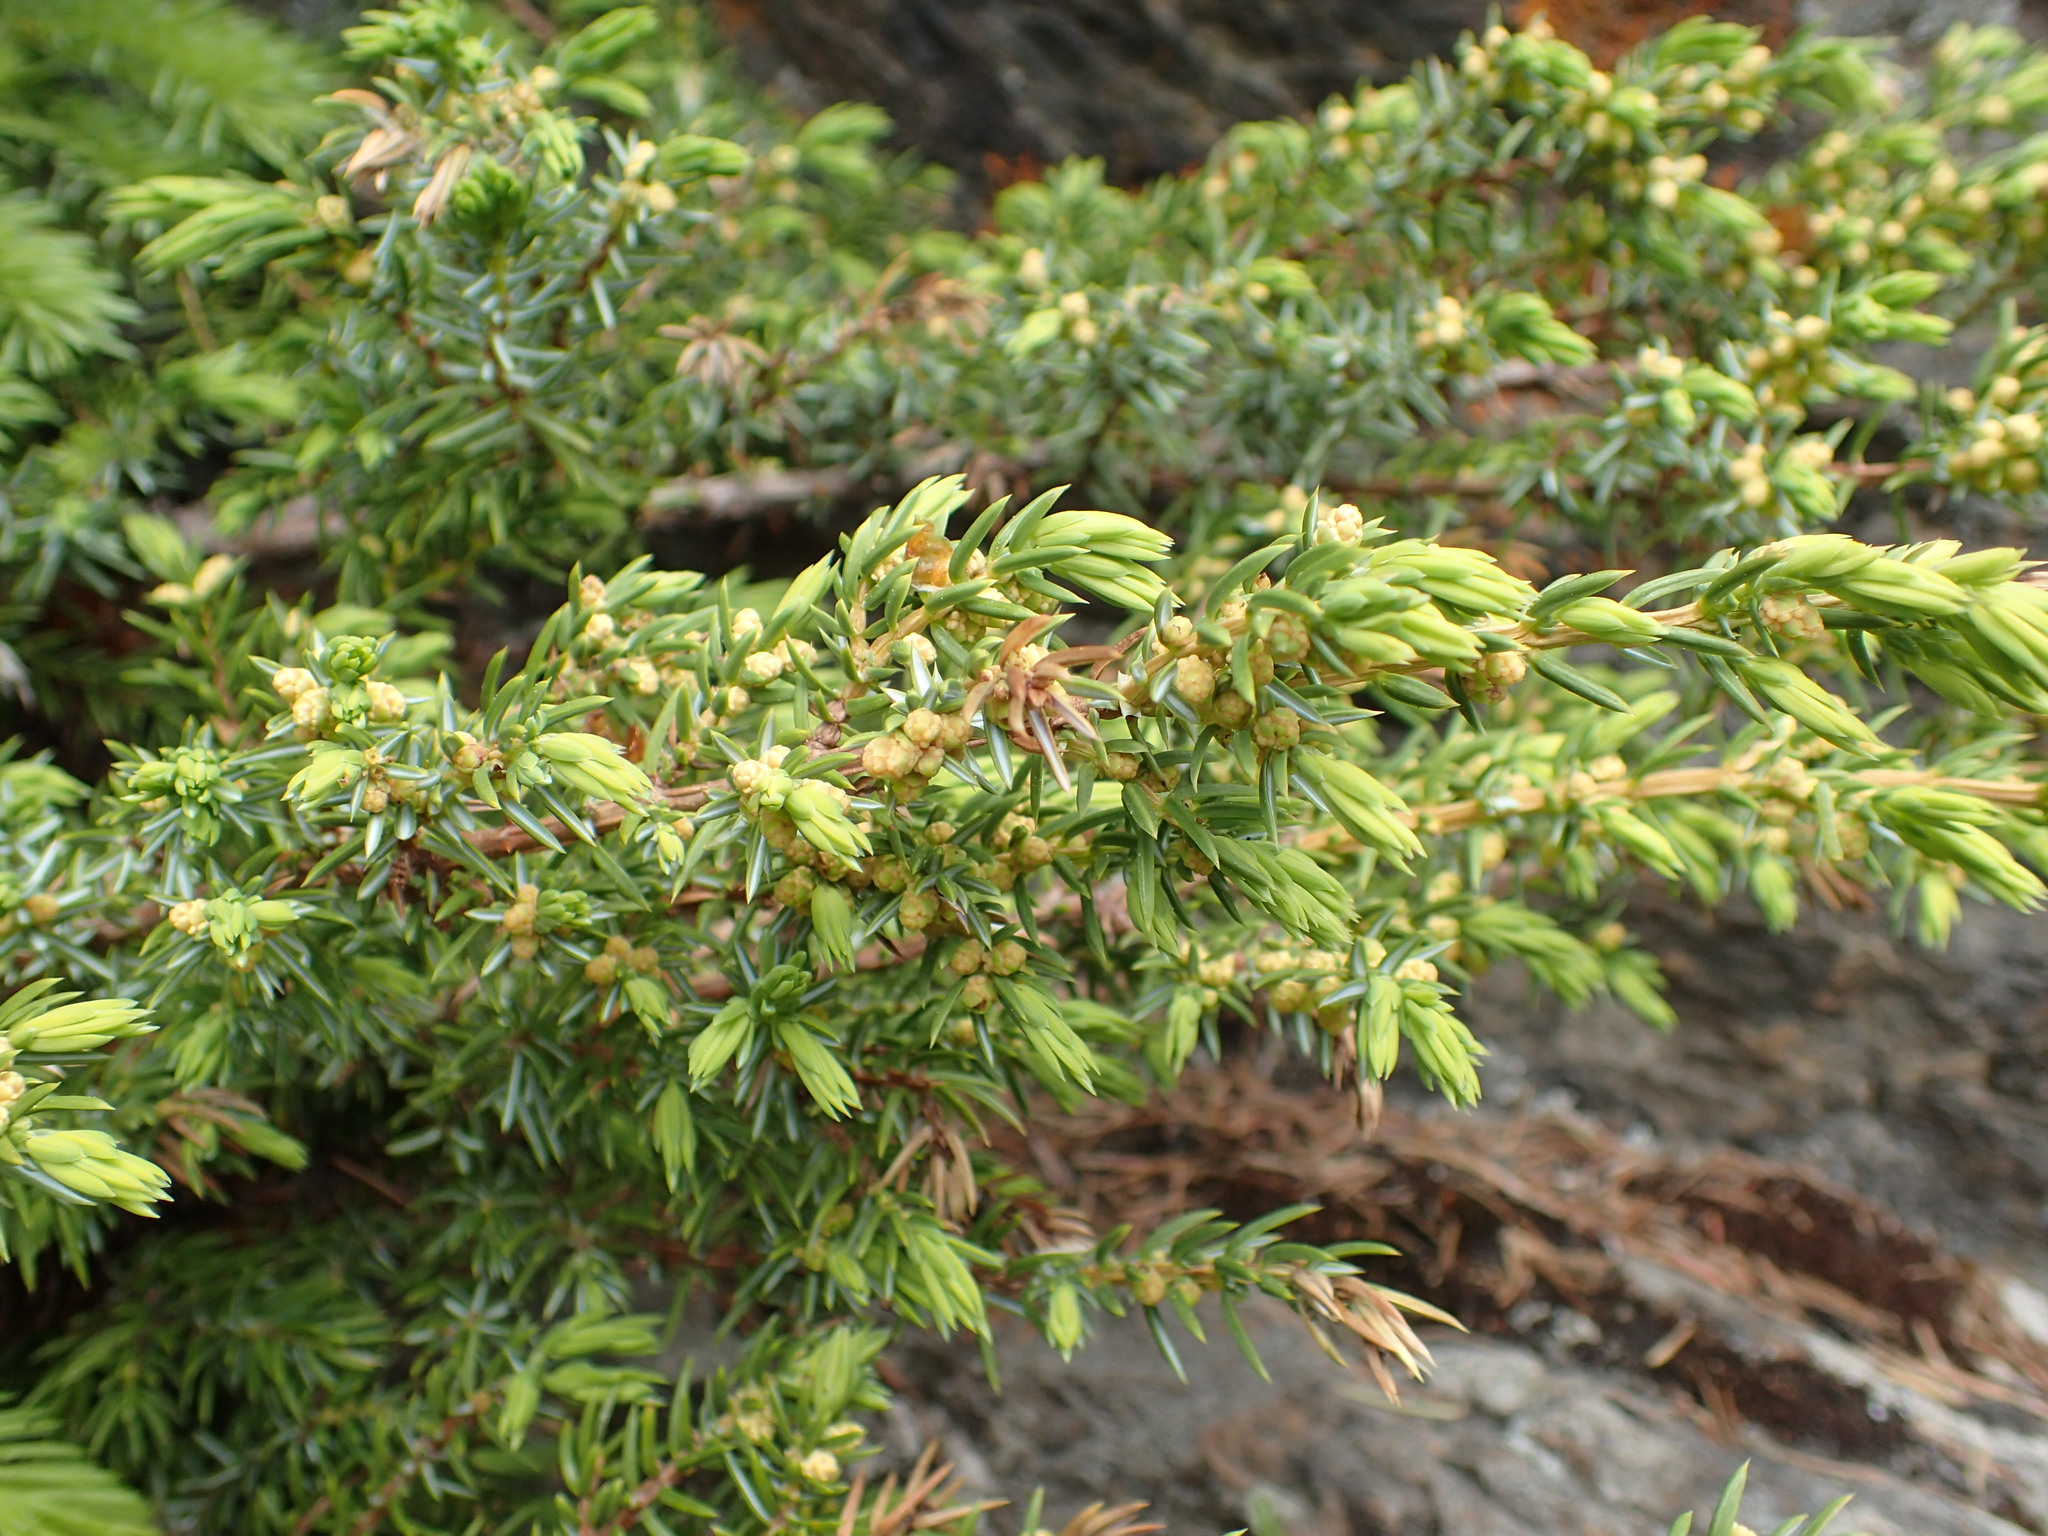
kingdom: Plantae
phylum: Tracheophyta
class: Pinopsida
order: Pinales
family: Cupressaceae
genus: Juniperus
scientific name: Juniperus communis
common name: Common juniper
